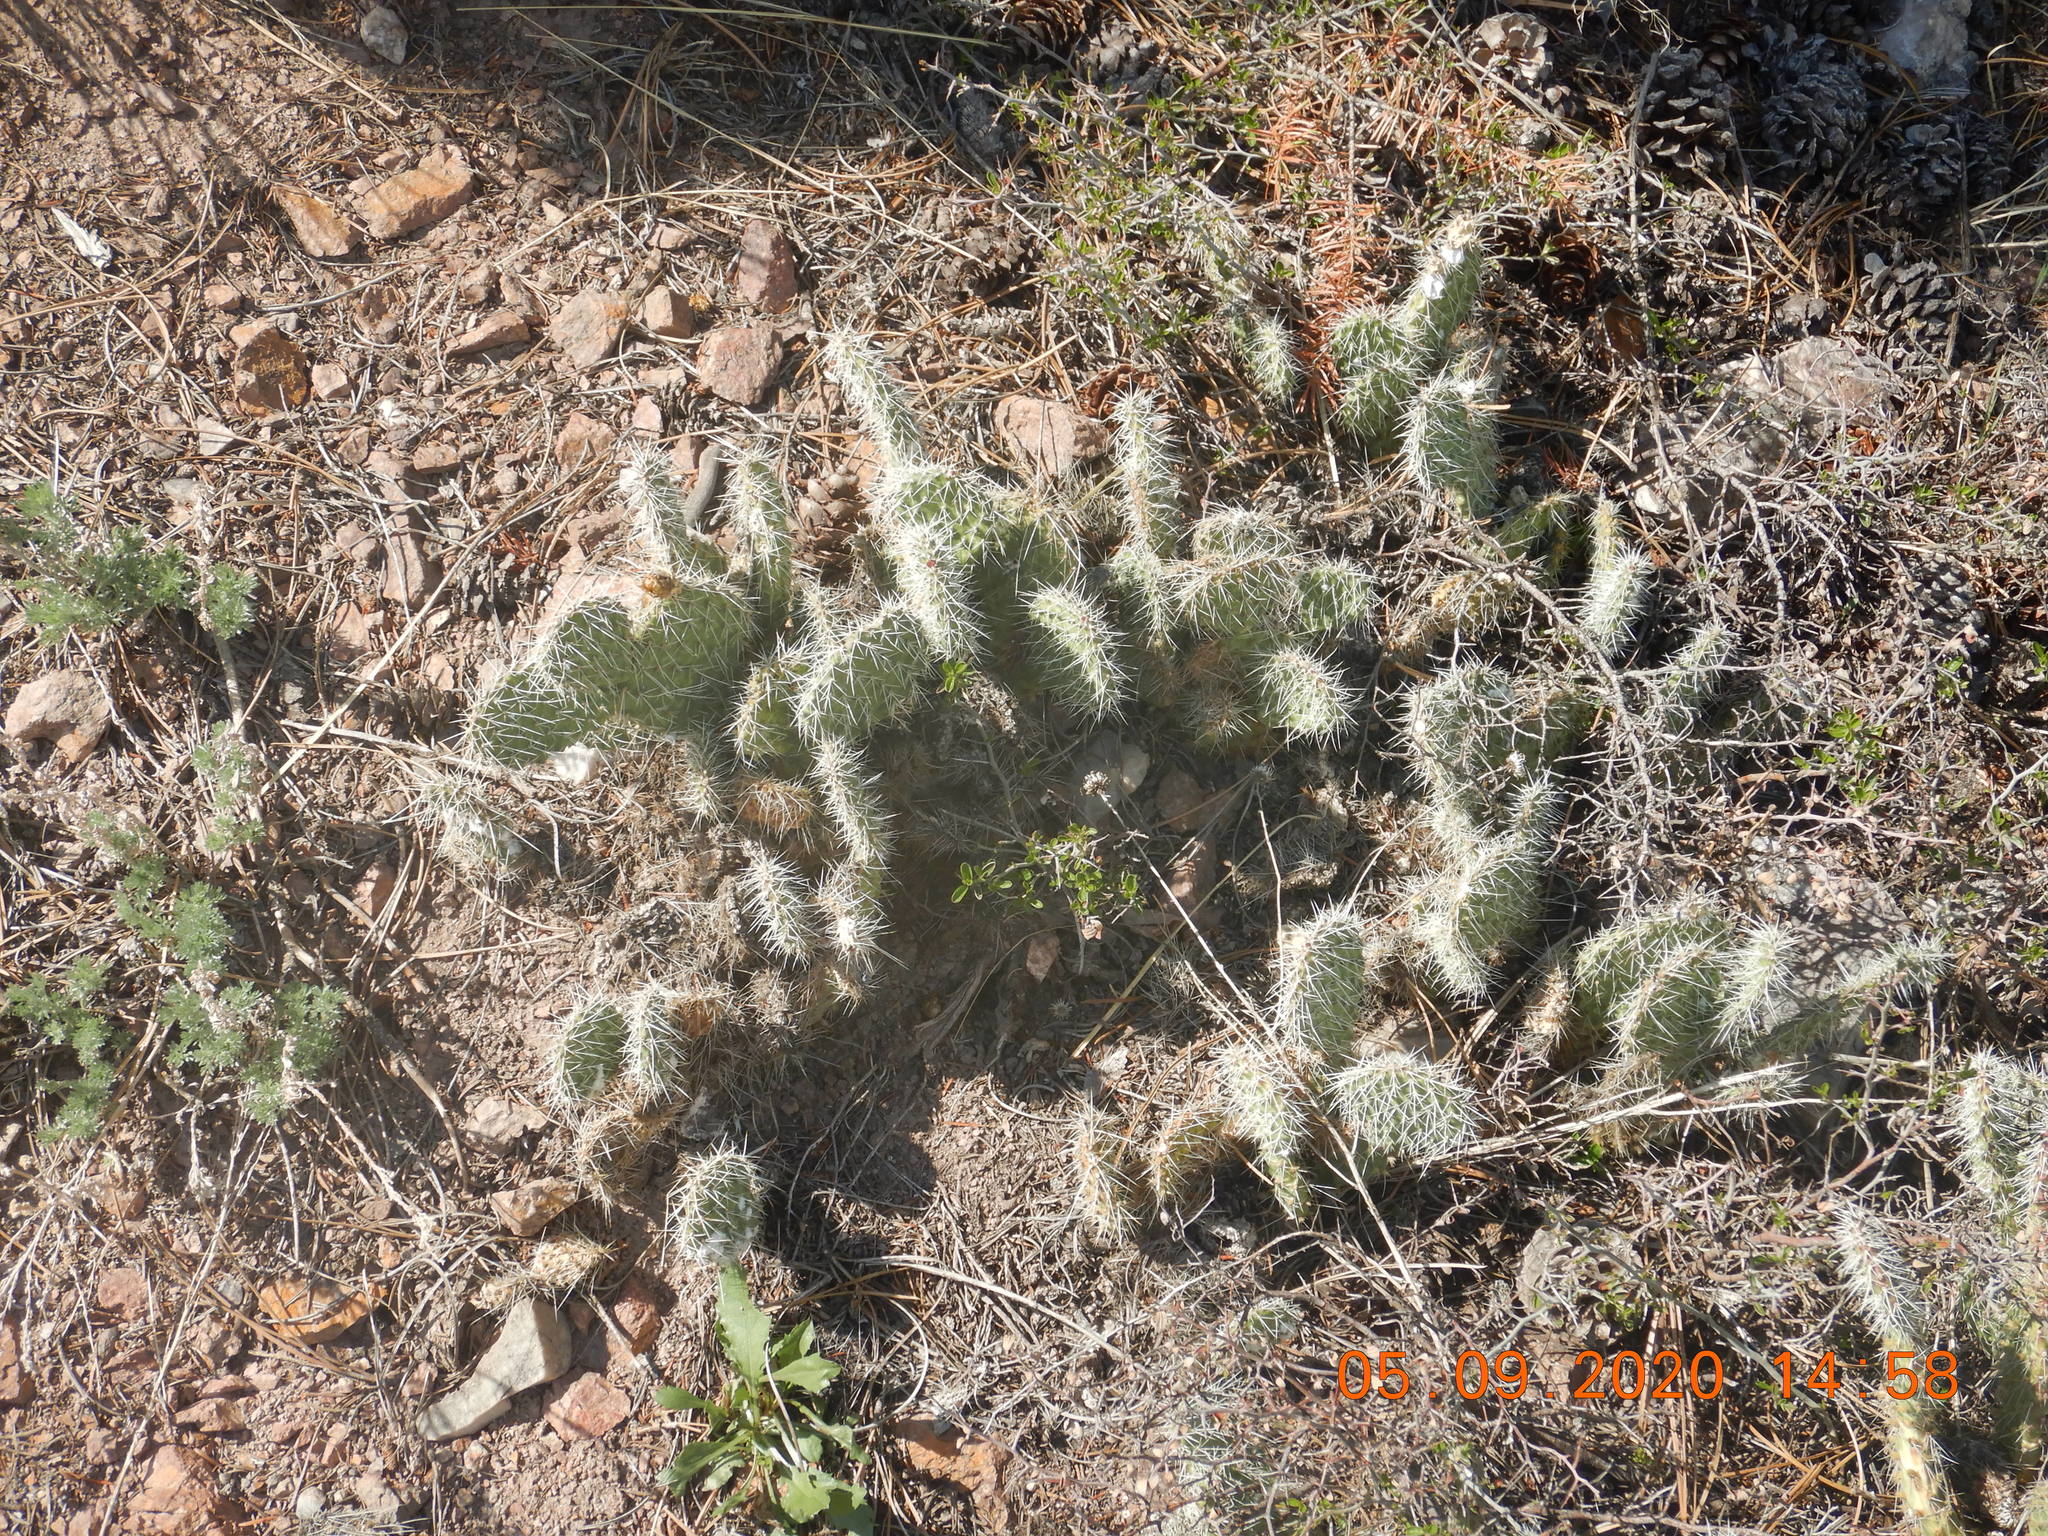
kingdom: Plantae
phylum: Tracheophyta
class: Magnoliopsida
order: Caryophyllales
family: Cactaceae
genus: Opuntia
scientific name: Opuntia polyacantha
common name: Plains prickly-pear
